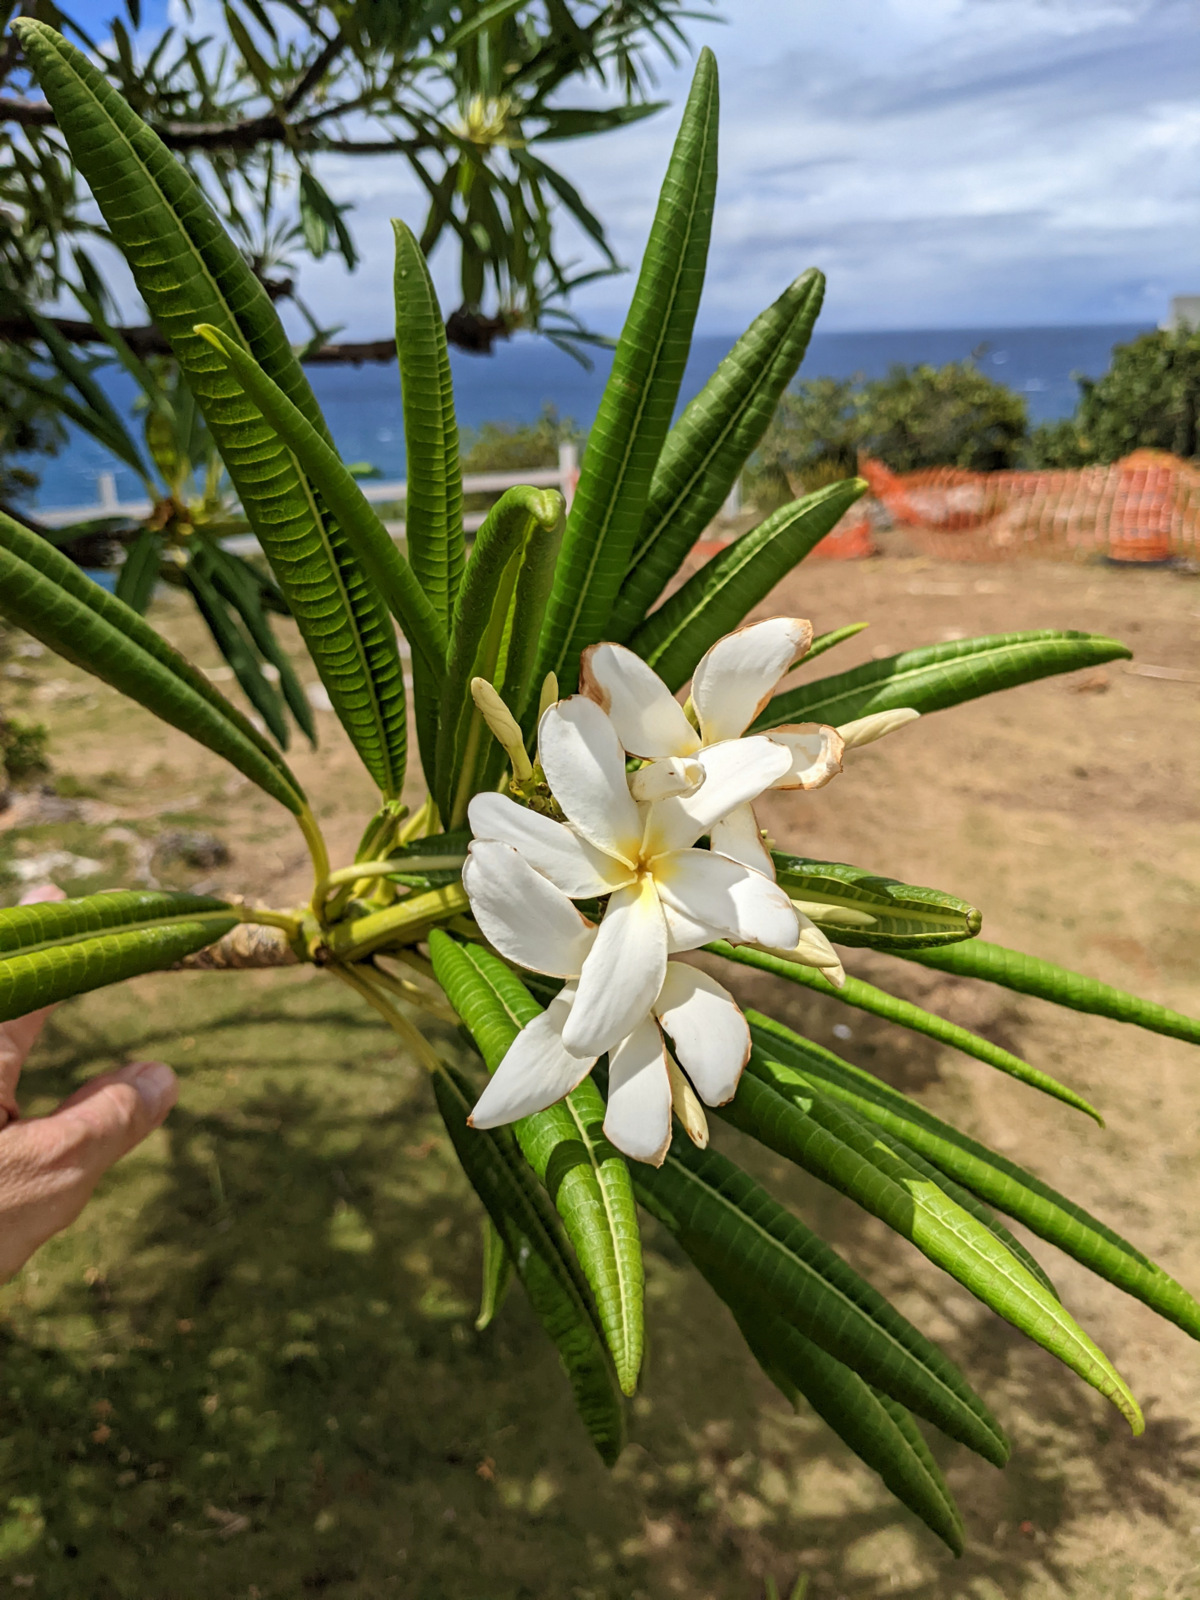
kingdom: Plantae
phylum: Tracheophyta
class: Magnoliopsida
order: Gentianales
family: Apocynaceae
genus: Plumeria
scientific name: Plumeria alba
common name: Wild frangipani
